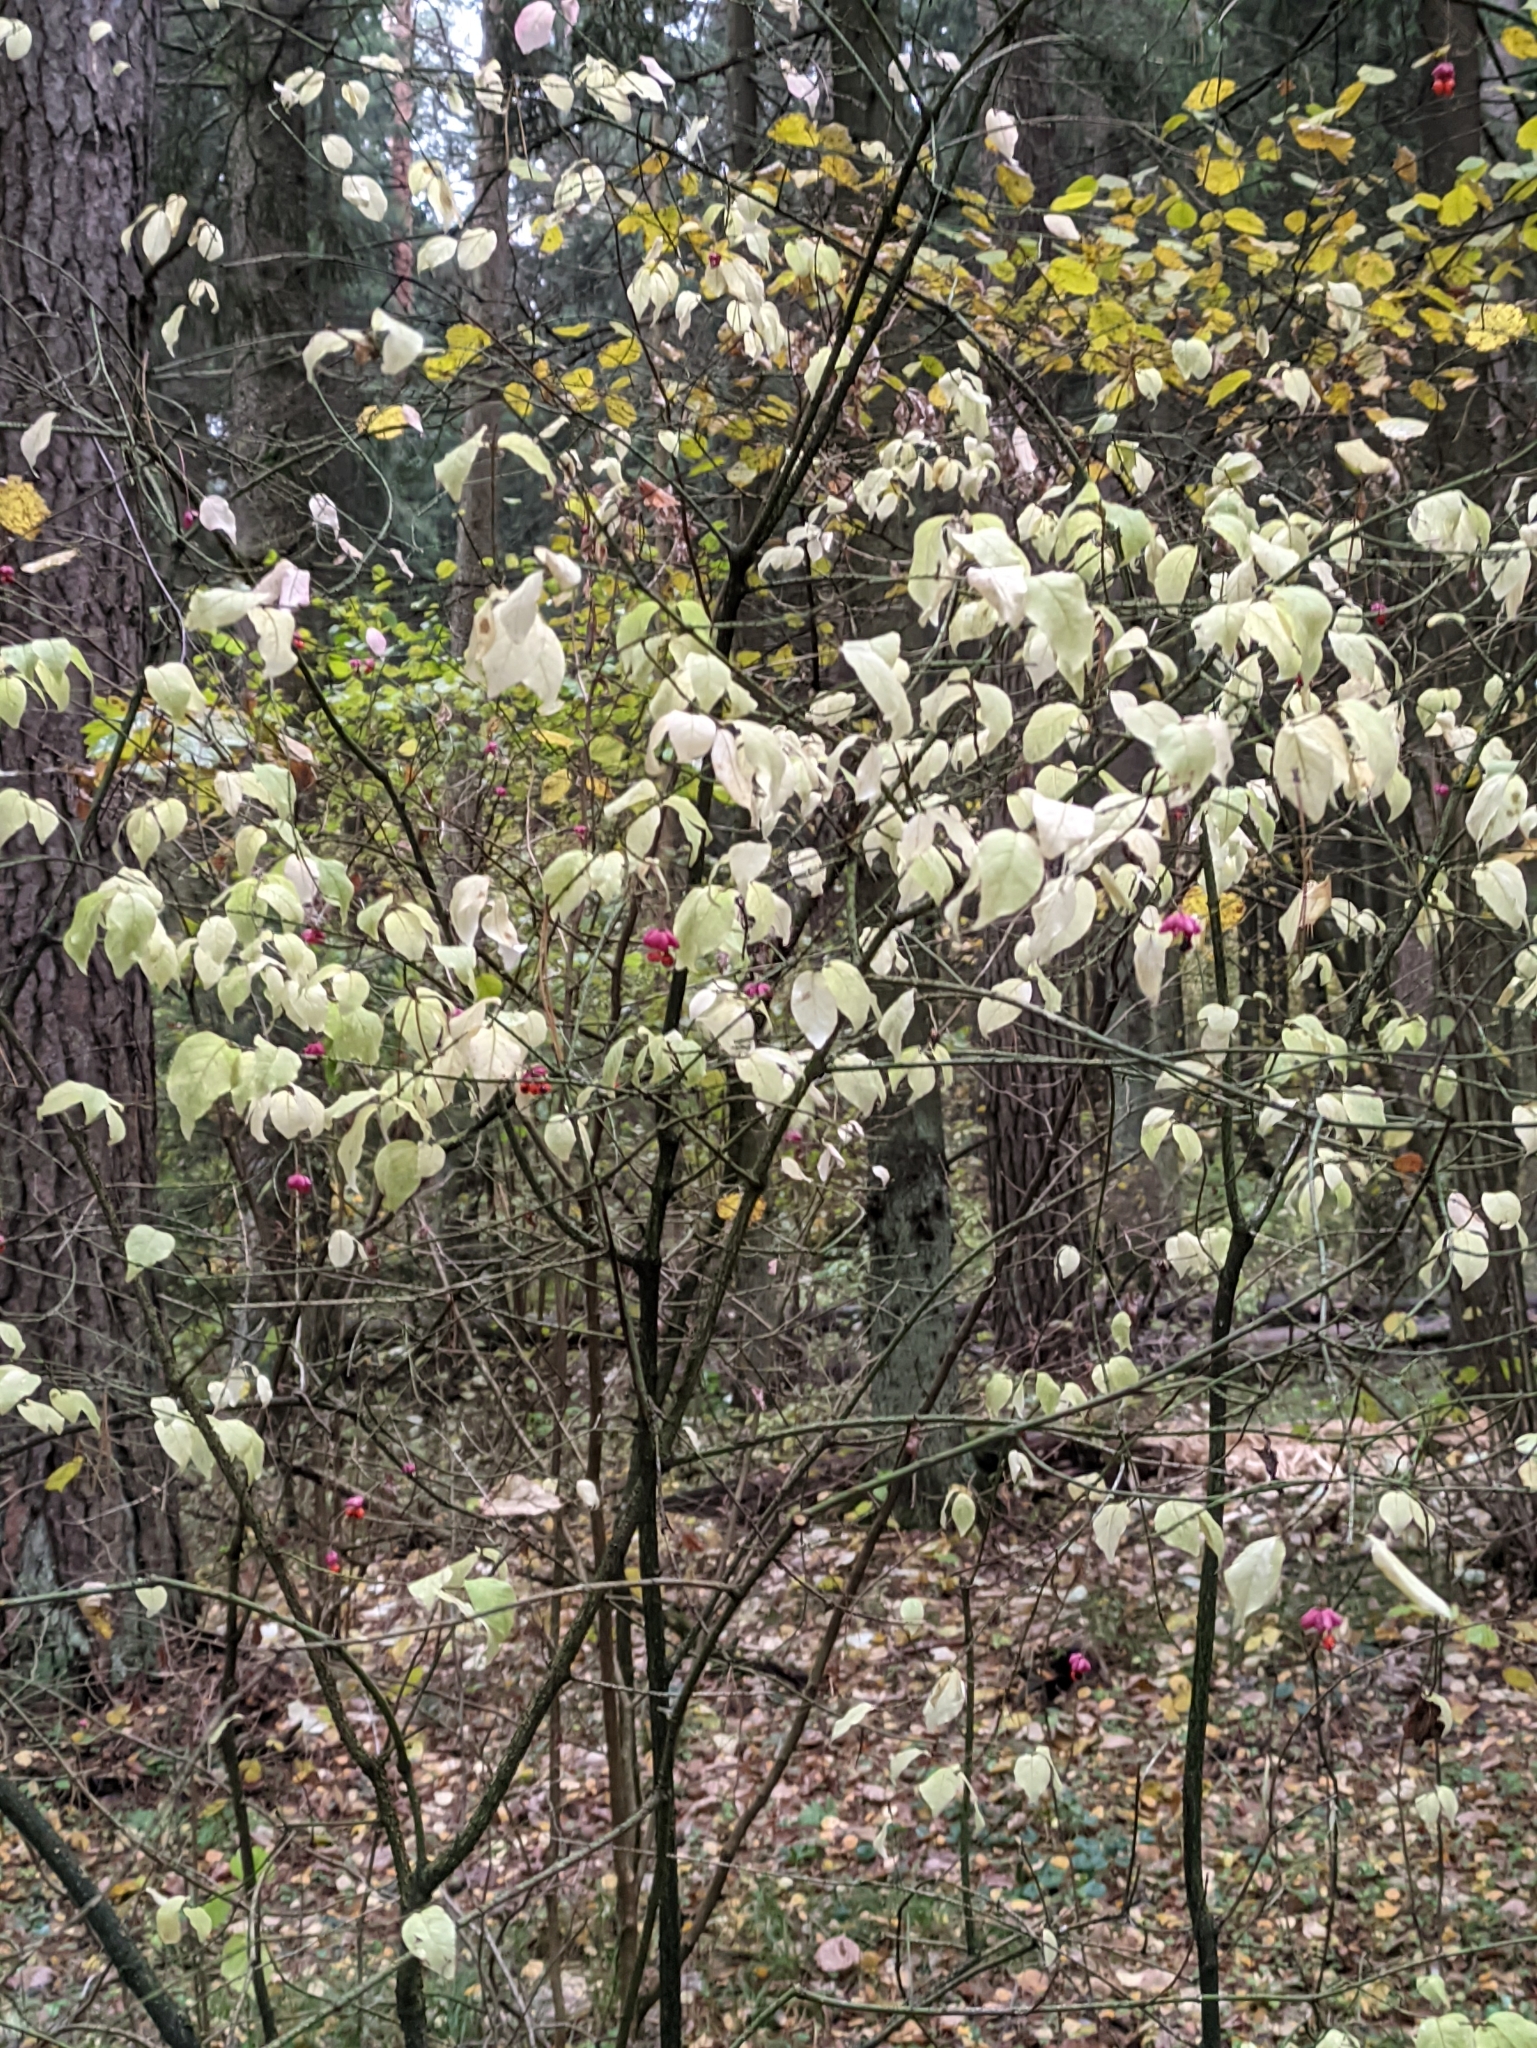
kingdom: Plantae
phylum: Tracheophyta
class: Magnoliopsida
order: Celastrales
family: Celastraceae
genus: Euonymus
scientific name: Euonymus verrucosus
